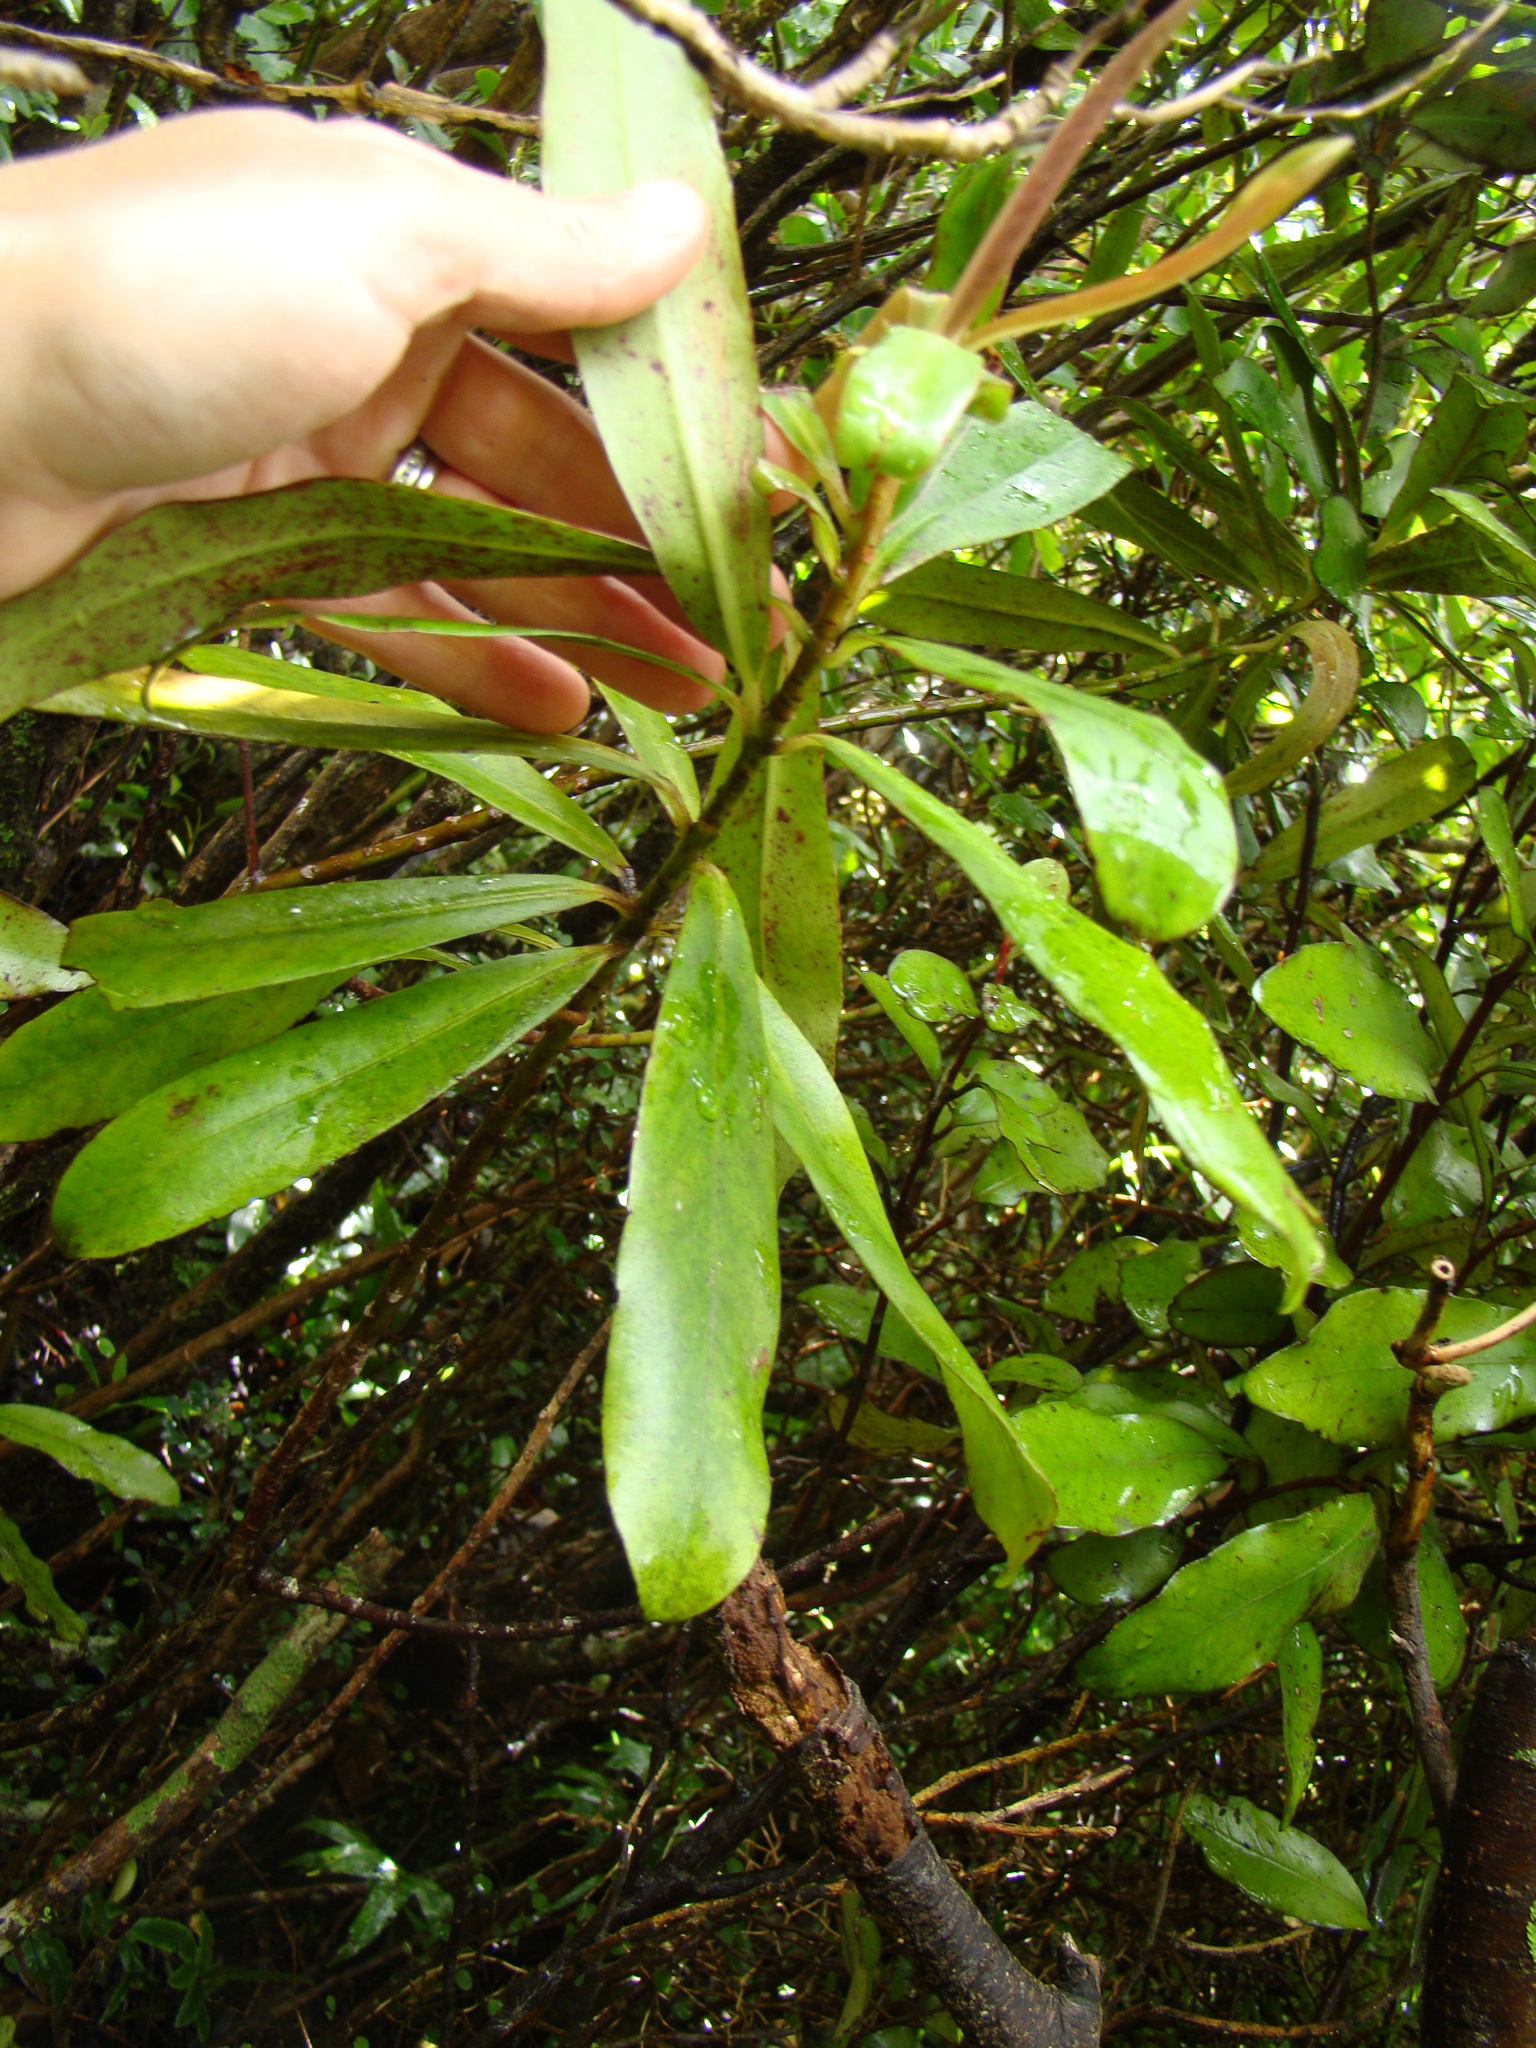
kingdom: Plantae
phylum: Tracheophyta
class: Magnoliopsida
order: Ericales
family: Primulaceae
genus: Myrsine
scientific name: Myrsine salicina
